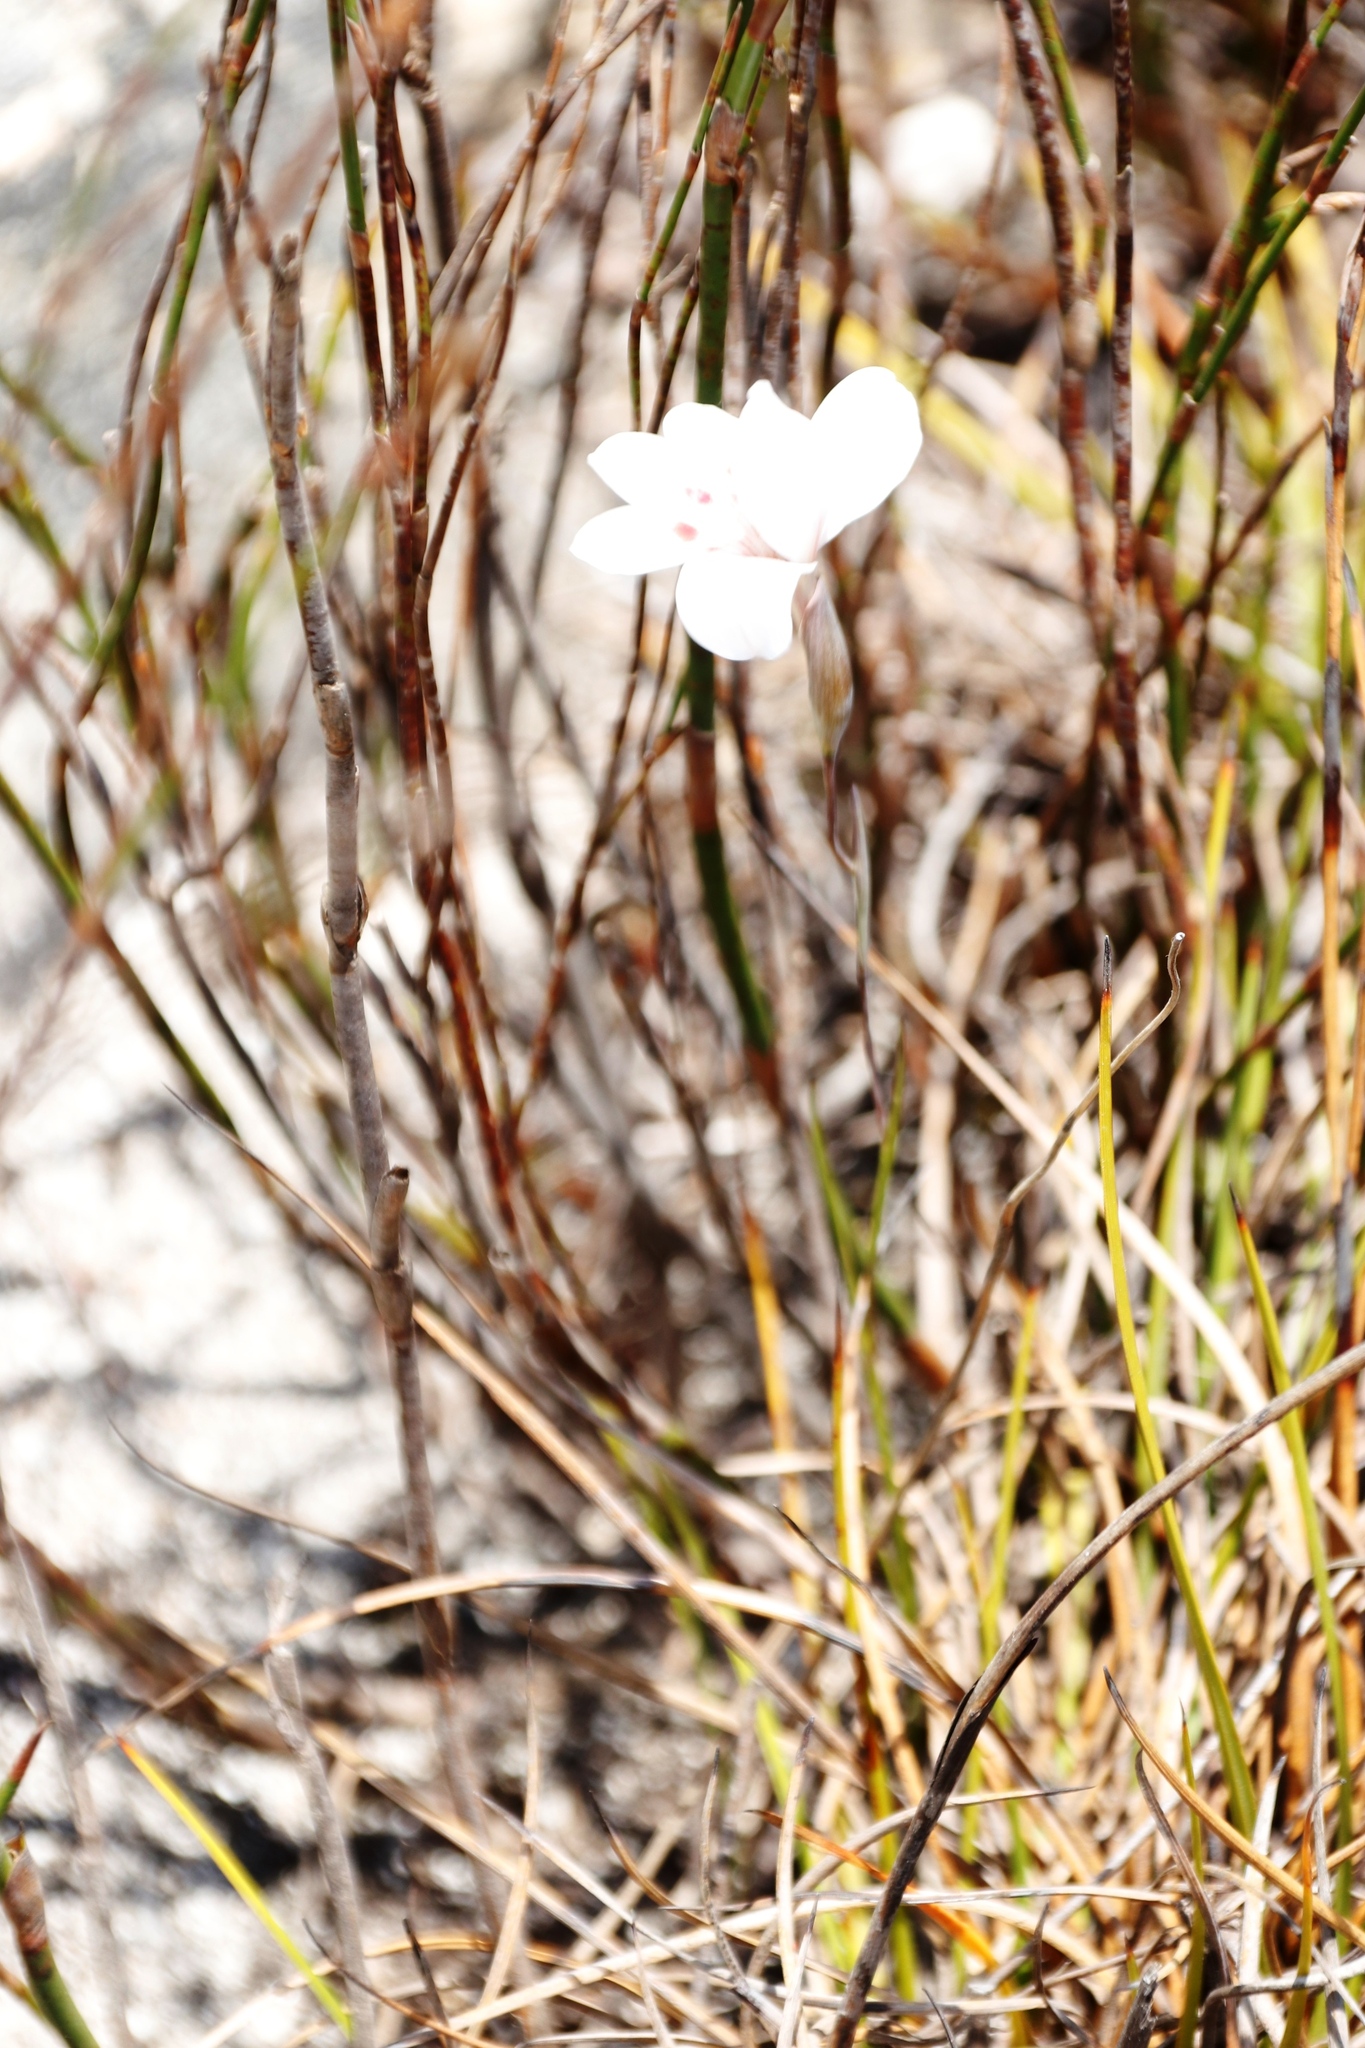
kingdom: Plantae
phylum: Tracheophyta
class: Liliopsida
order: Asparagales
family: Iridaceae
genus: Gladiolus
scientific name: Gladiolus debilis
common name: Painted-lady
